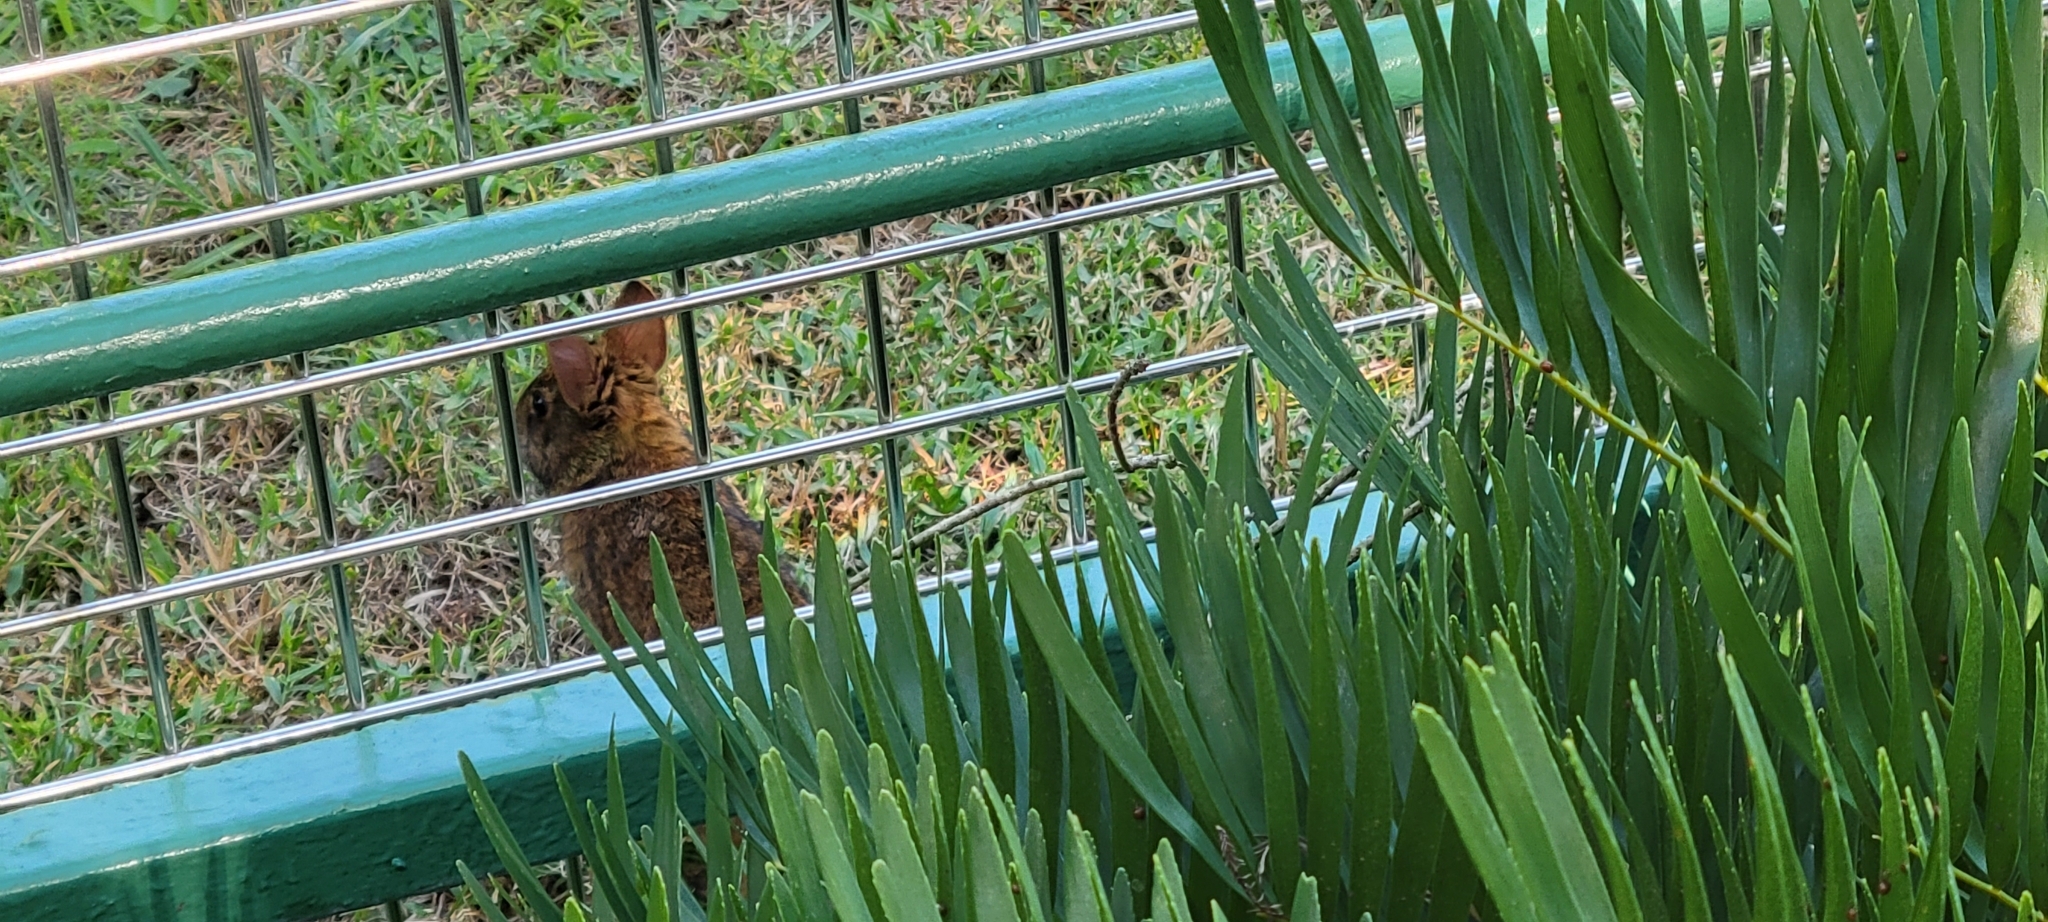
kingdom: Animalia
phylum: Chordata
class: Mammalia
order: Lagomorpha
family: Leporidae
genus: Sylvilagus
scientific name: Sylvilagus palustris
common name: Marsh rabbit
